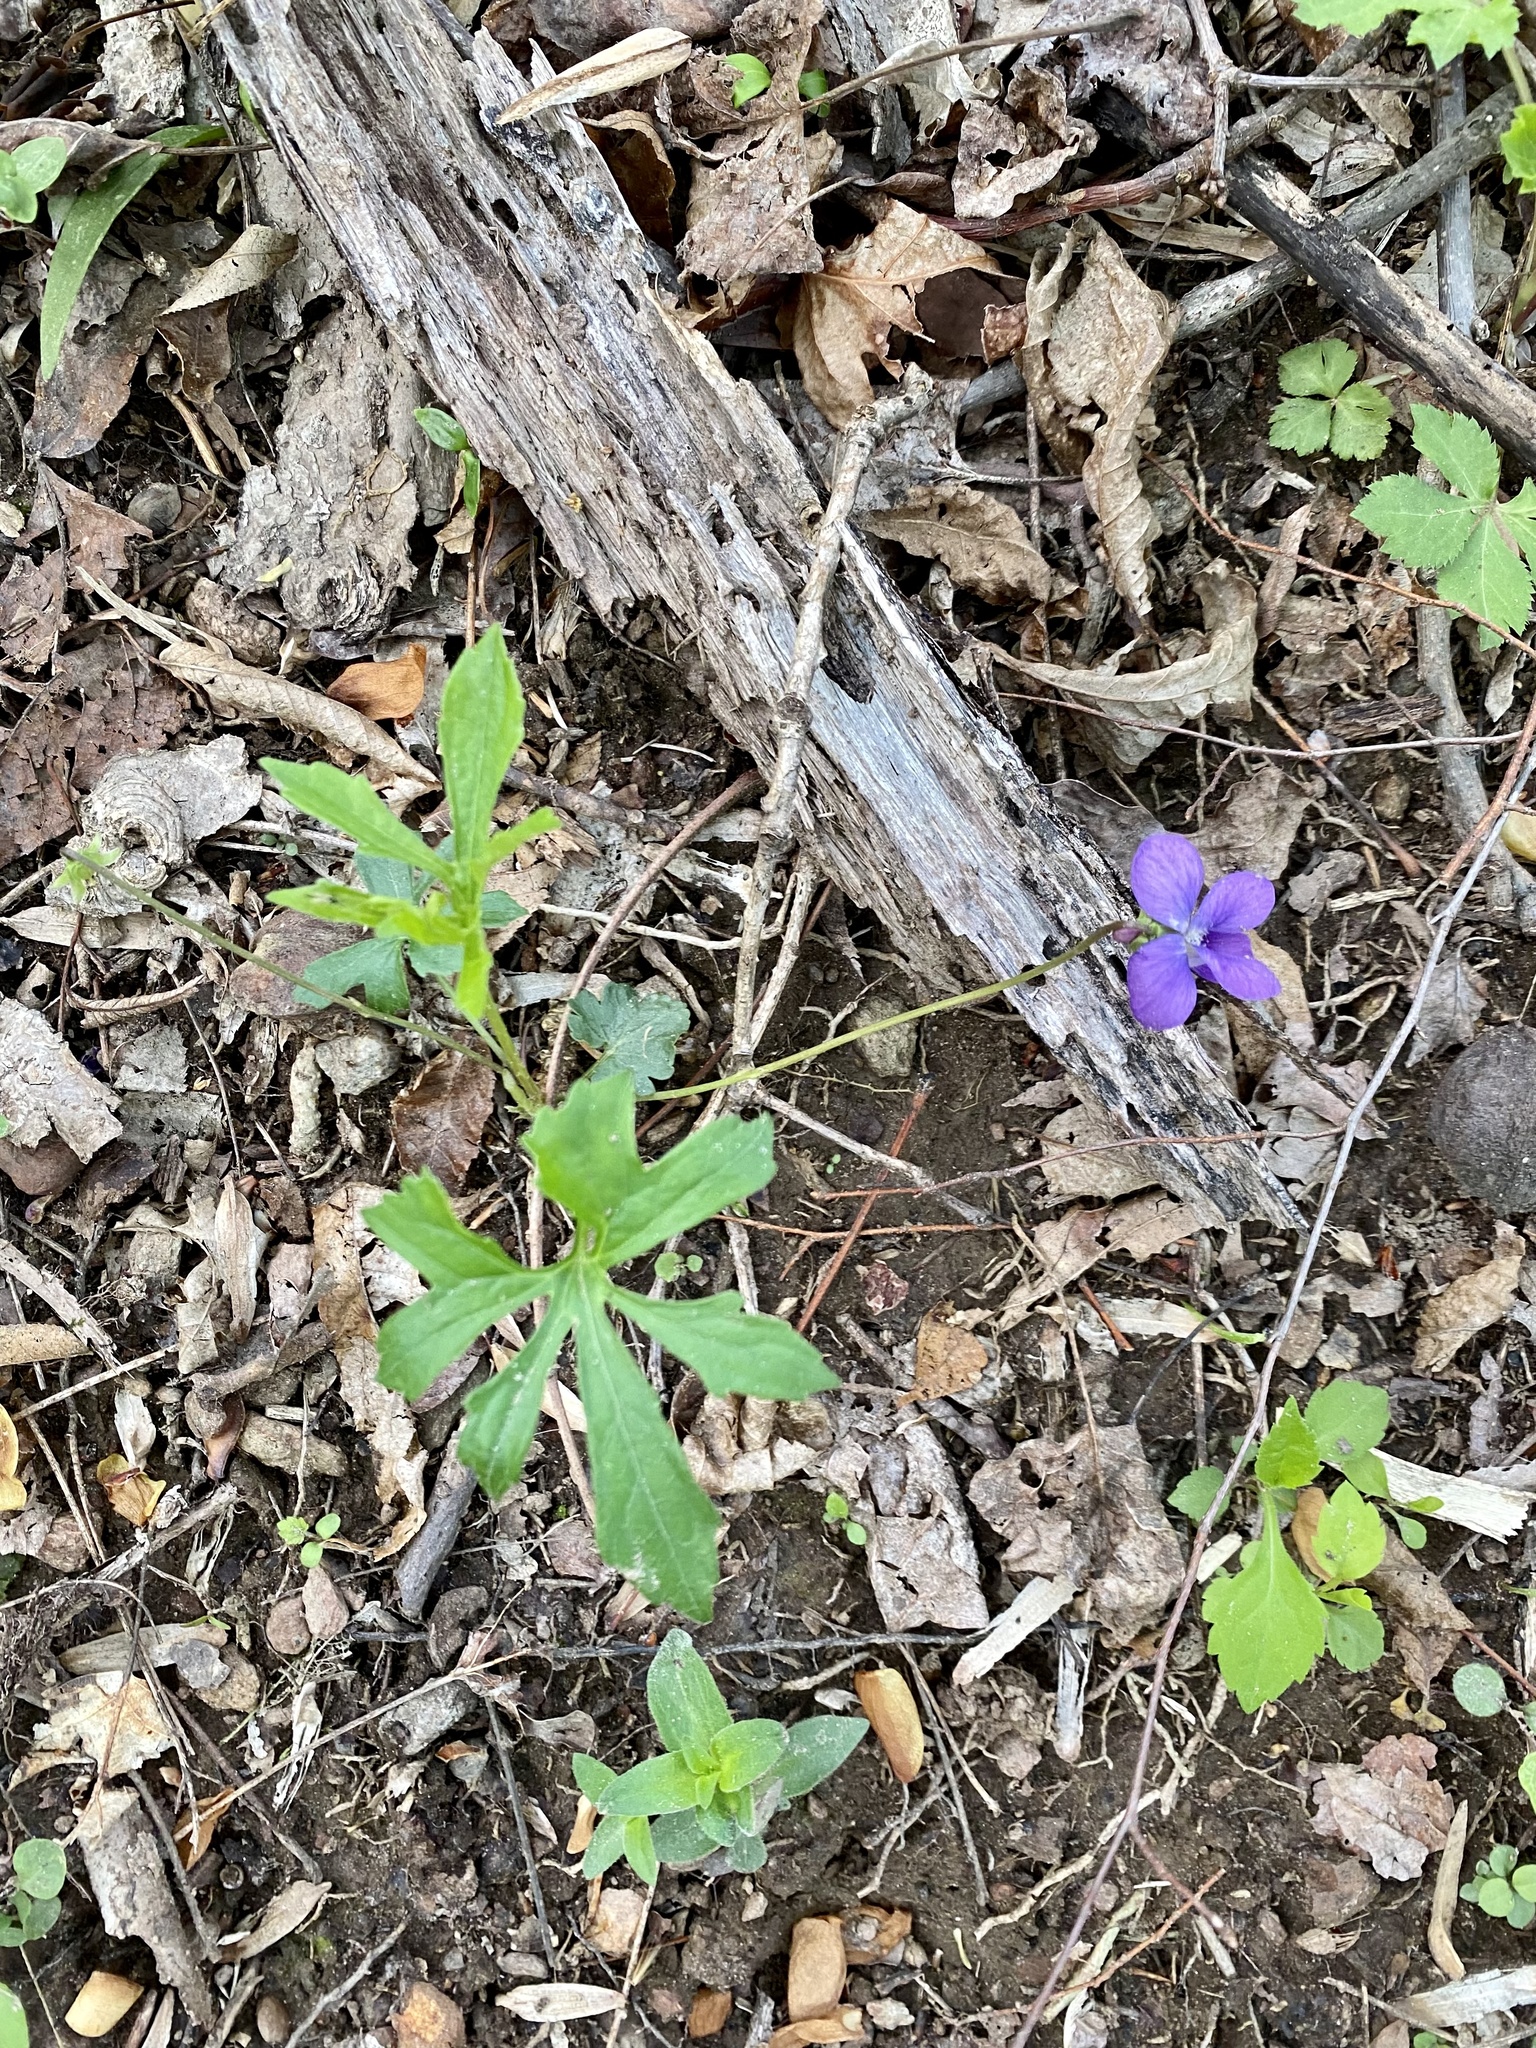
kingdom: Plantae
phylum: Tracheophyta
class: Magnoliopsida
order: Malpighiales
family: Violaceae
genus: Viola
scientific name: Viola palmata
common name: Early blue violet
